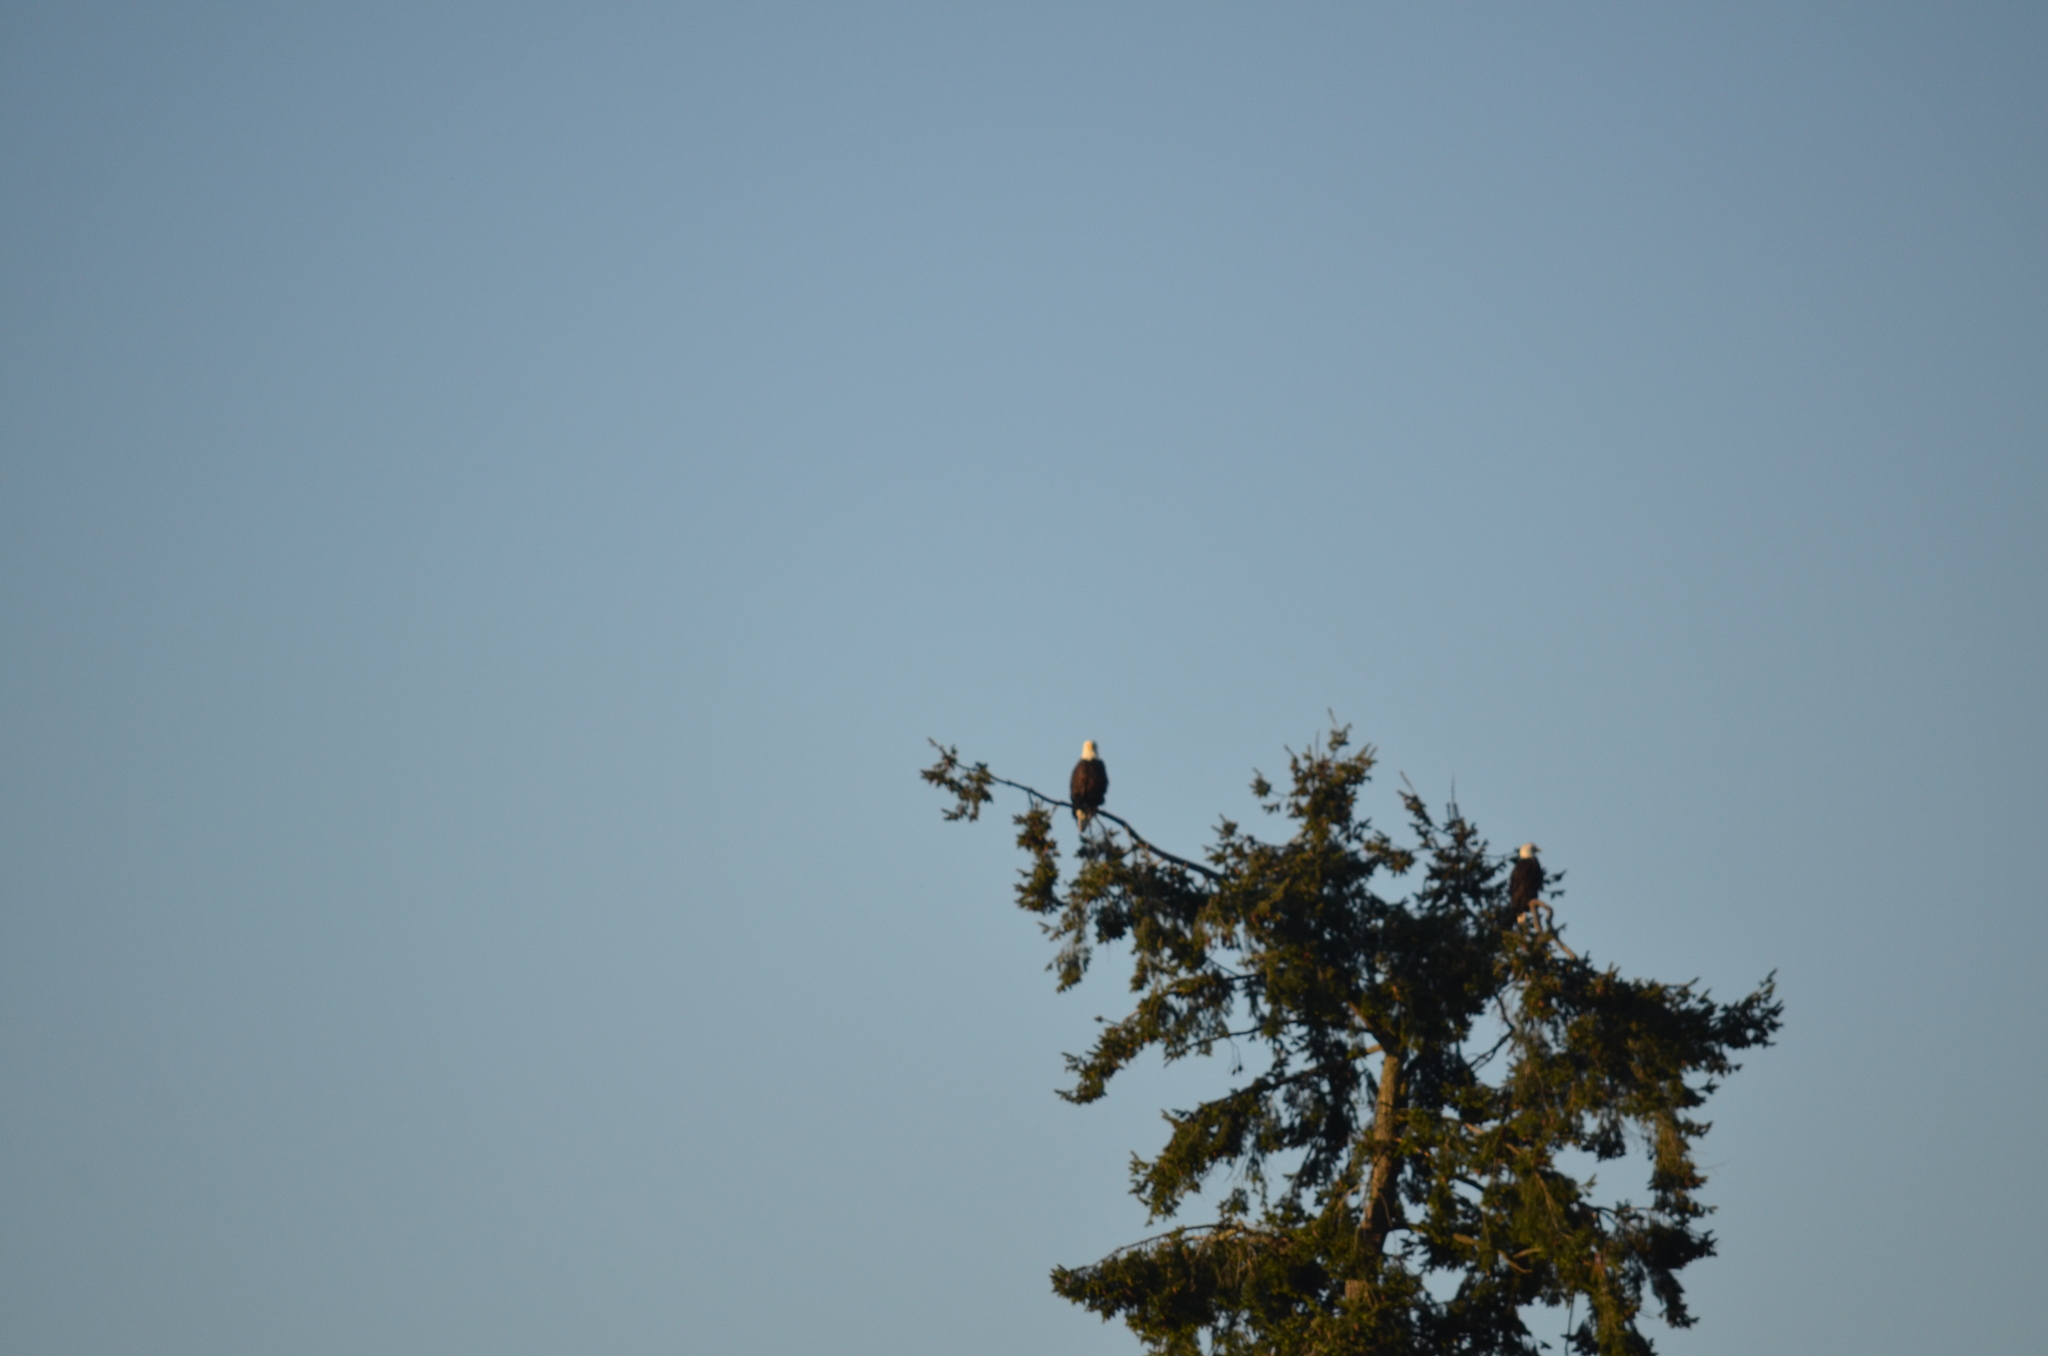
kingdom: Animalia
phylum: Chordata
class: Aves
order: Accipitriformes
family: Accipitridae
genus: Haliaeetus
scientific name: Haliaeetus leucocephalus
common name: Bald eagle
